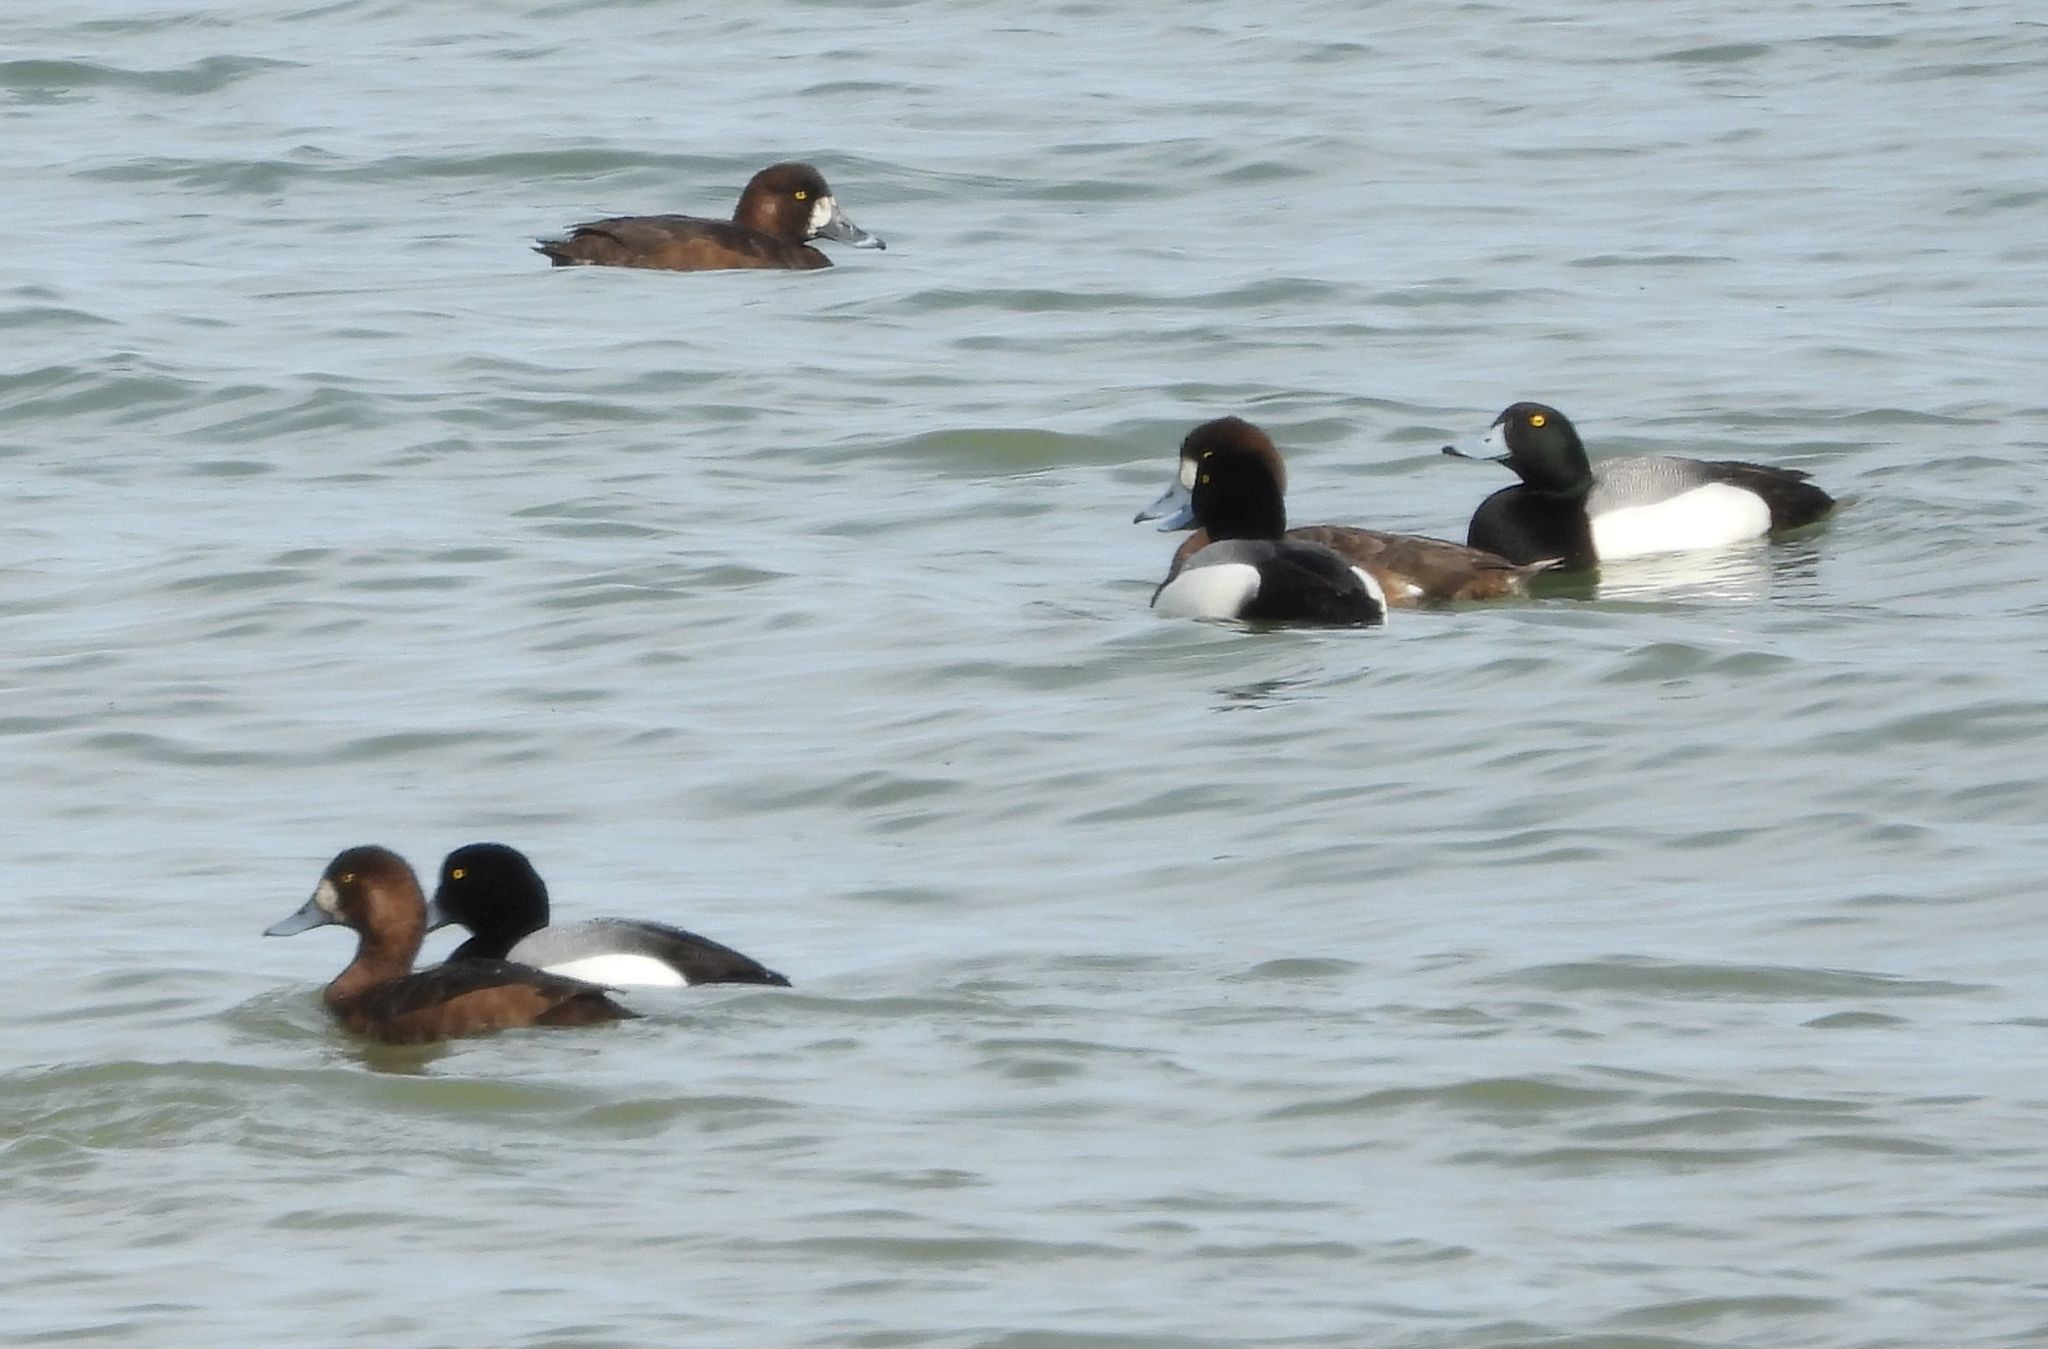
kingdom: Animalia
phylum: Chordata
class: Aves
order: Anseriformes
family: Anatidae
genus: Aythya
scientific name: Aythya marila
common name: Greater scaup
